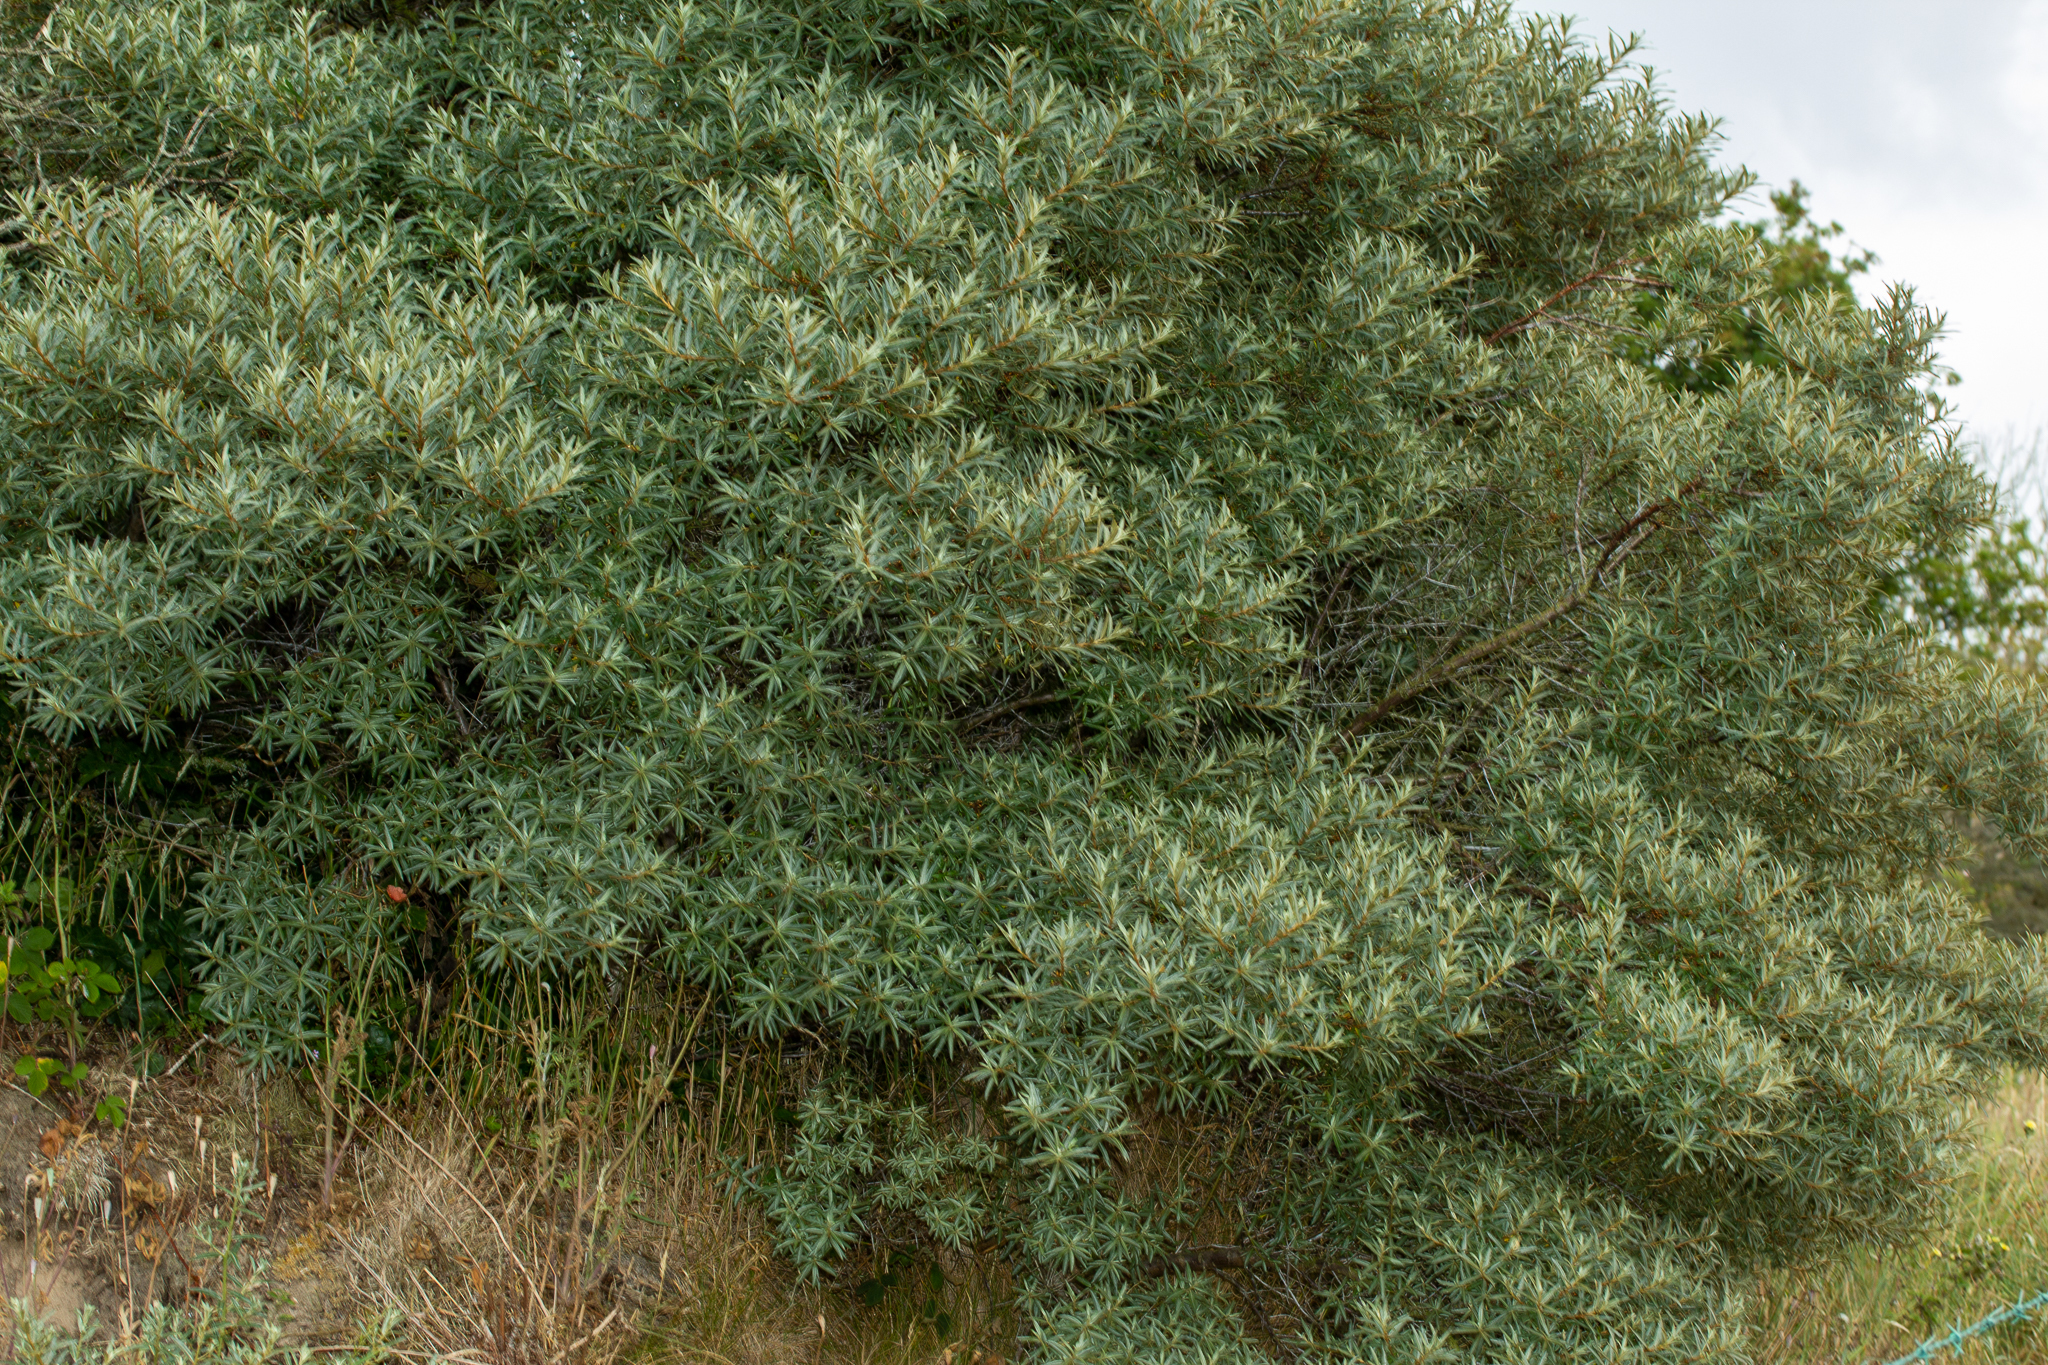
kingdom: Plantae
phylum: Tracheophyta
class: Magnoliopsida
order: Rosales
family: Elaeagnaceae
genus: Hippophae
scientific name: Hippophae rhamnoides
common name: Sea-buckthorn
